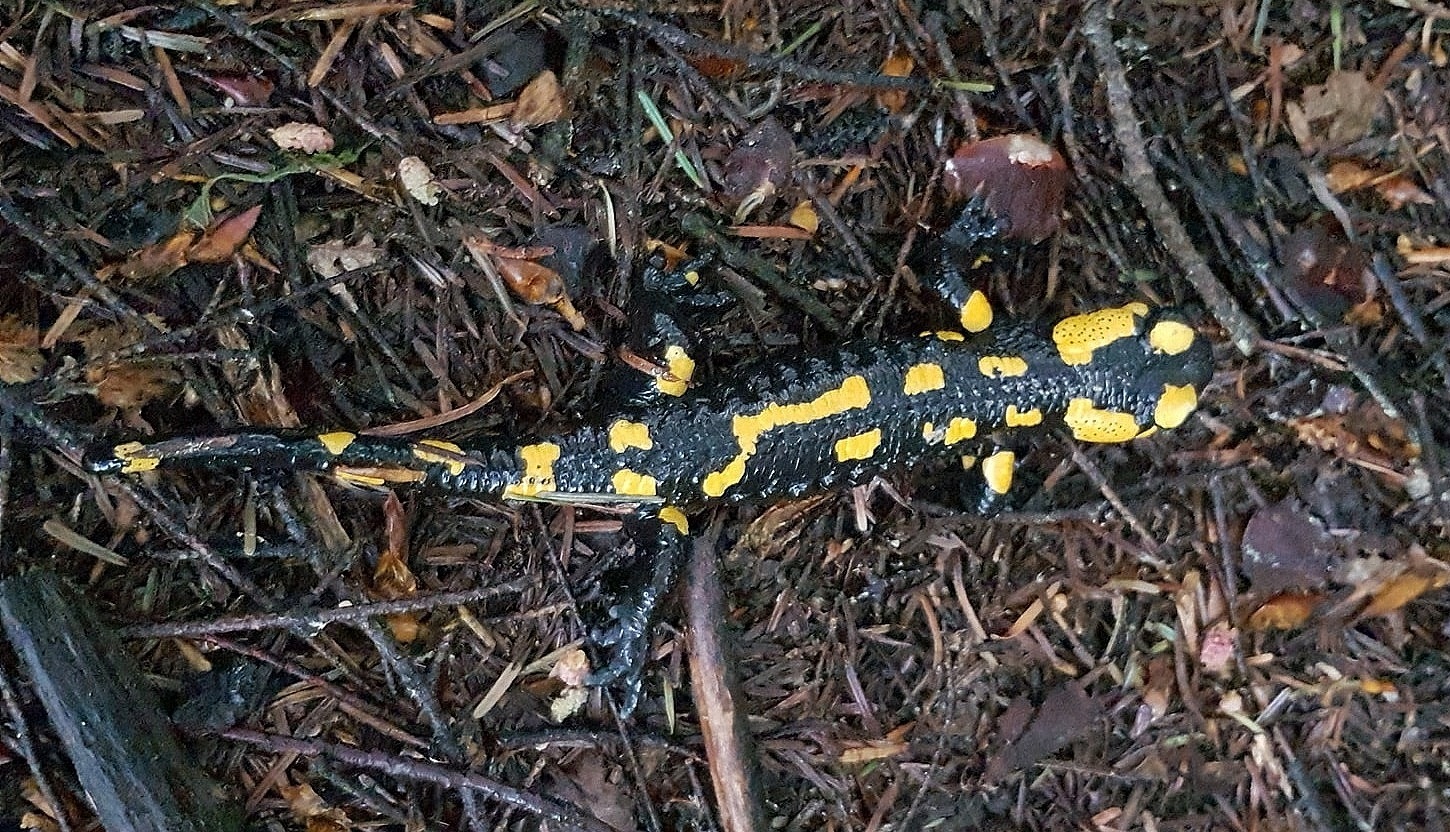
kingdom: Animalia
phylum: Chordata
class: Amphibia
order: Caudata
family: Salamandridae
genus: Salamandra
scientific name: Salamandra salamandra
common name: Fire salamander
